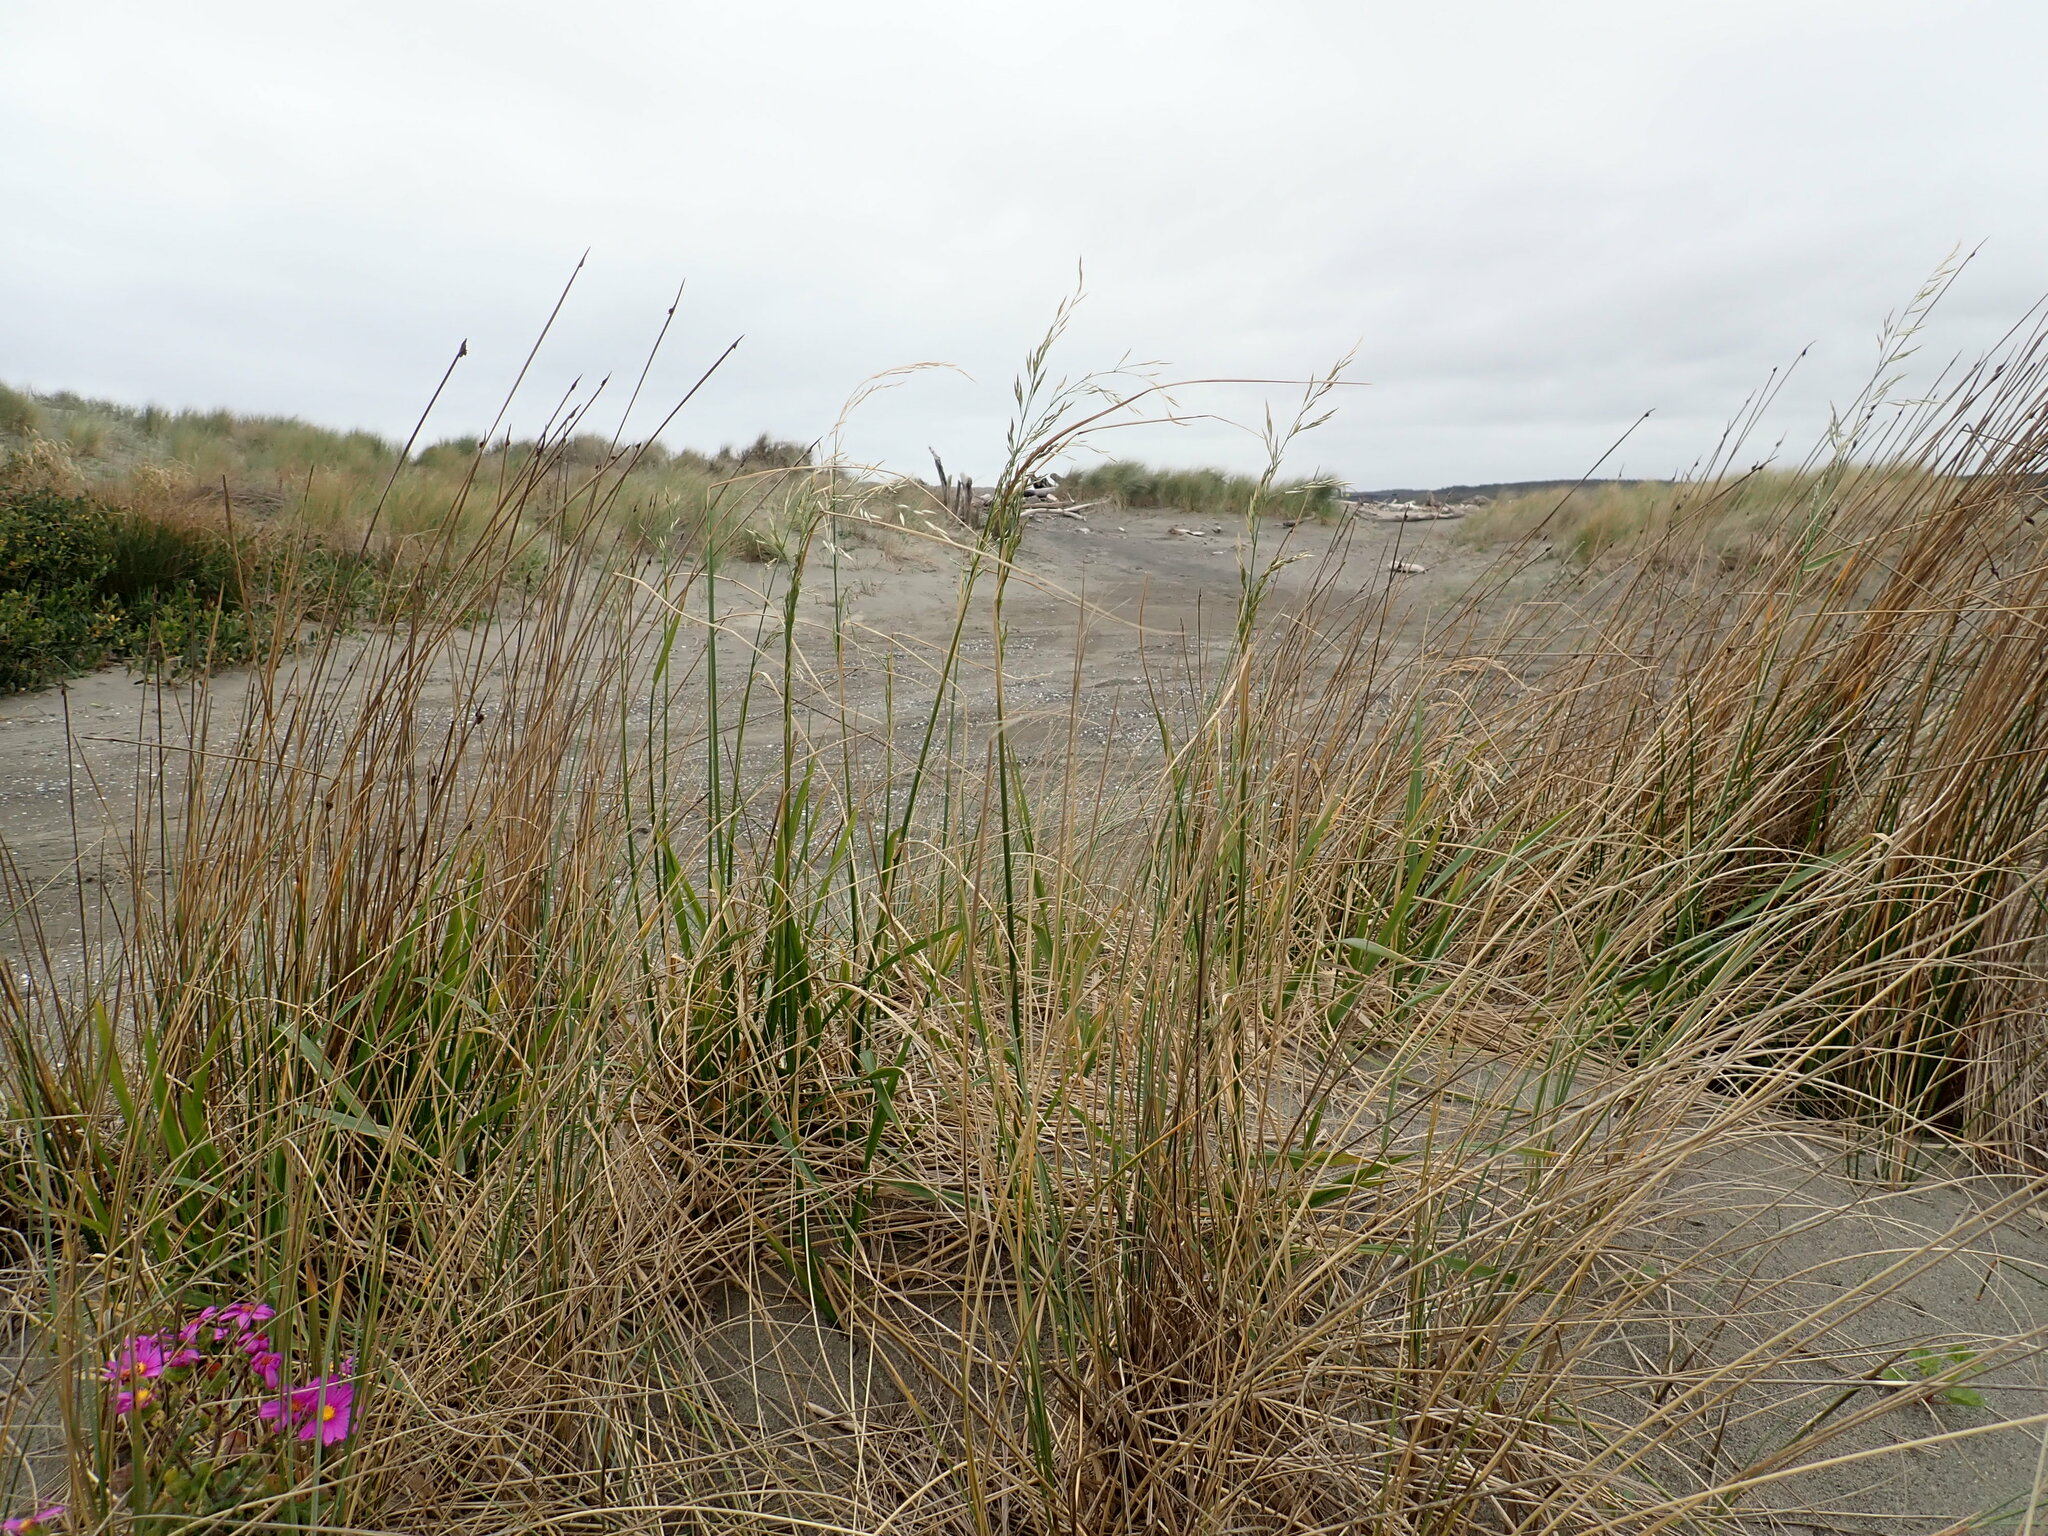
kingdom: Plantae
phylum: Tracheophyta
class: Liliopsida
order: Poales
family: Poaceae
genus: Lolium
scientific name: Lolium arundinaceum
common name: Reed fescue
